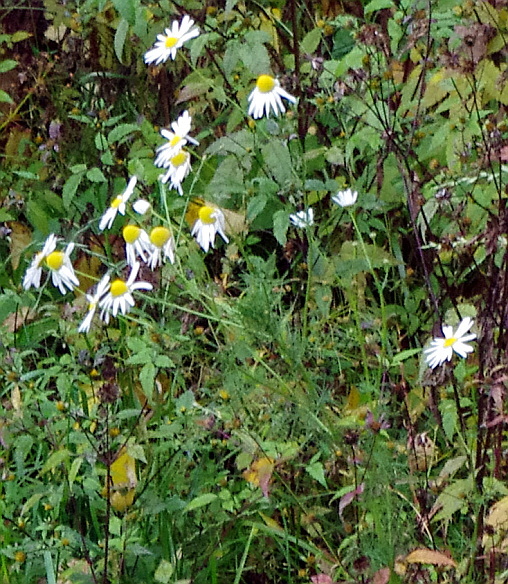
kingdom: Plantae
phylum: Tracheophyta
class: Magnoliopsida
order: Asterales
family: Asteraceae
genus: Tripleurospermum
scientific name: Tripleurospermum inodorum
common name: Scentless mayweed
